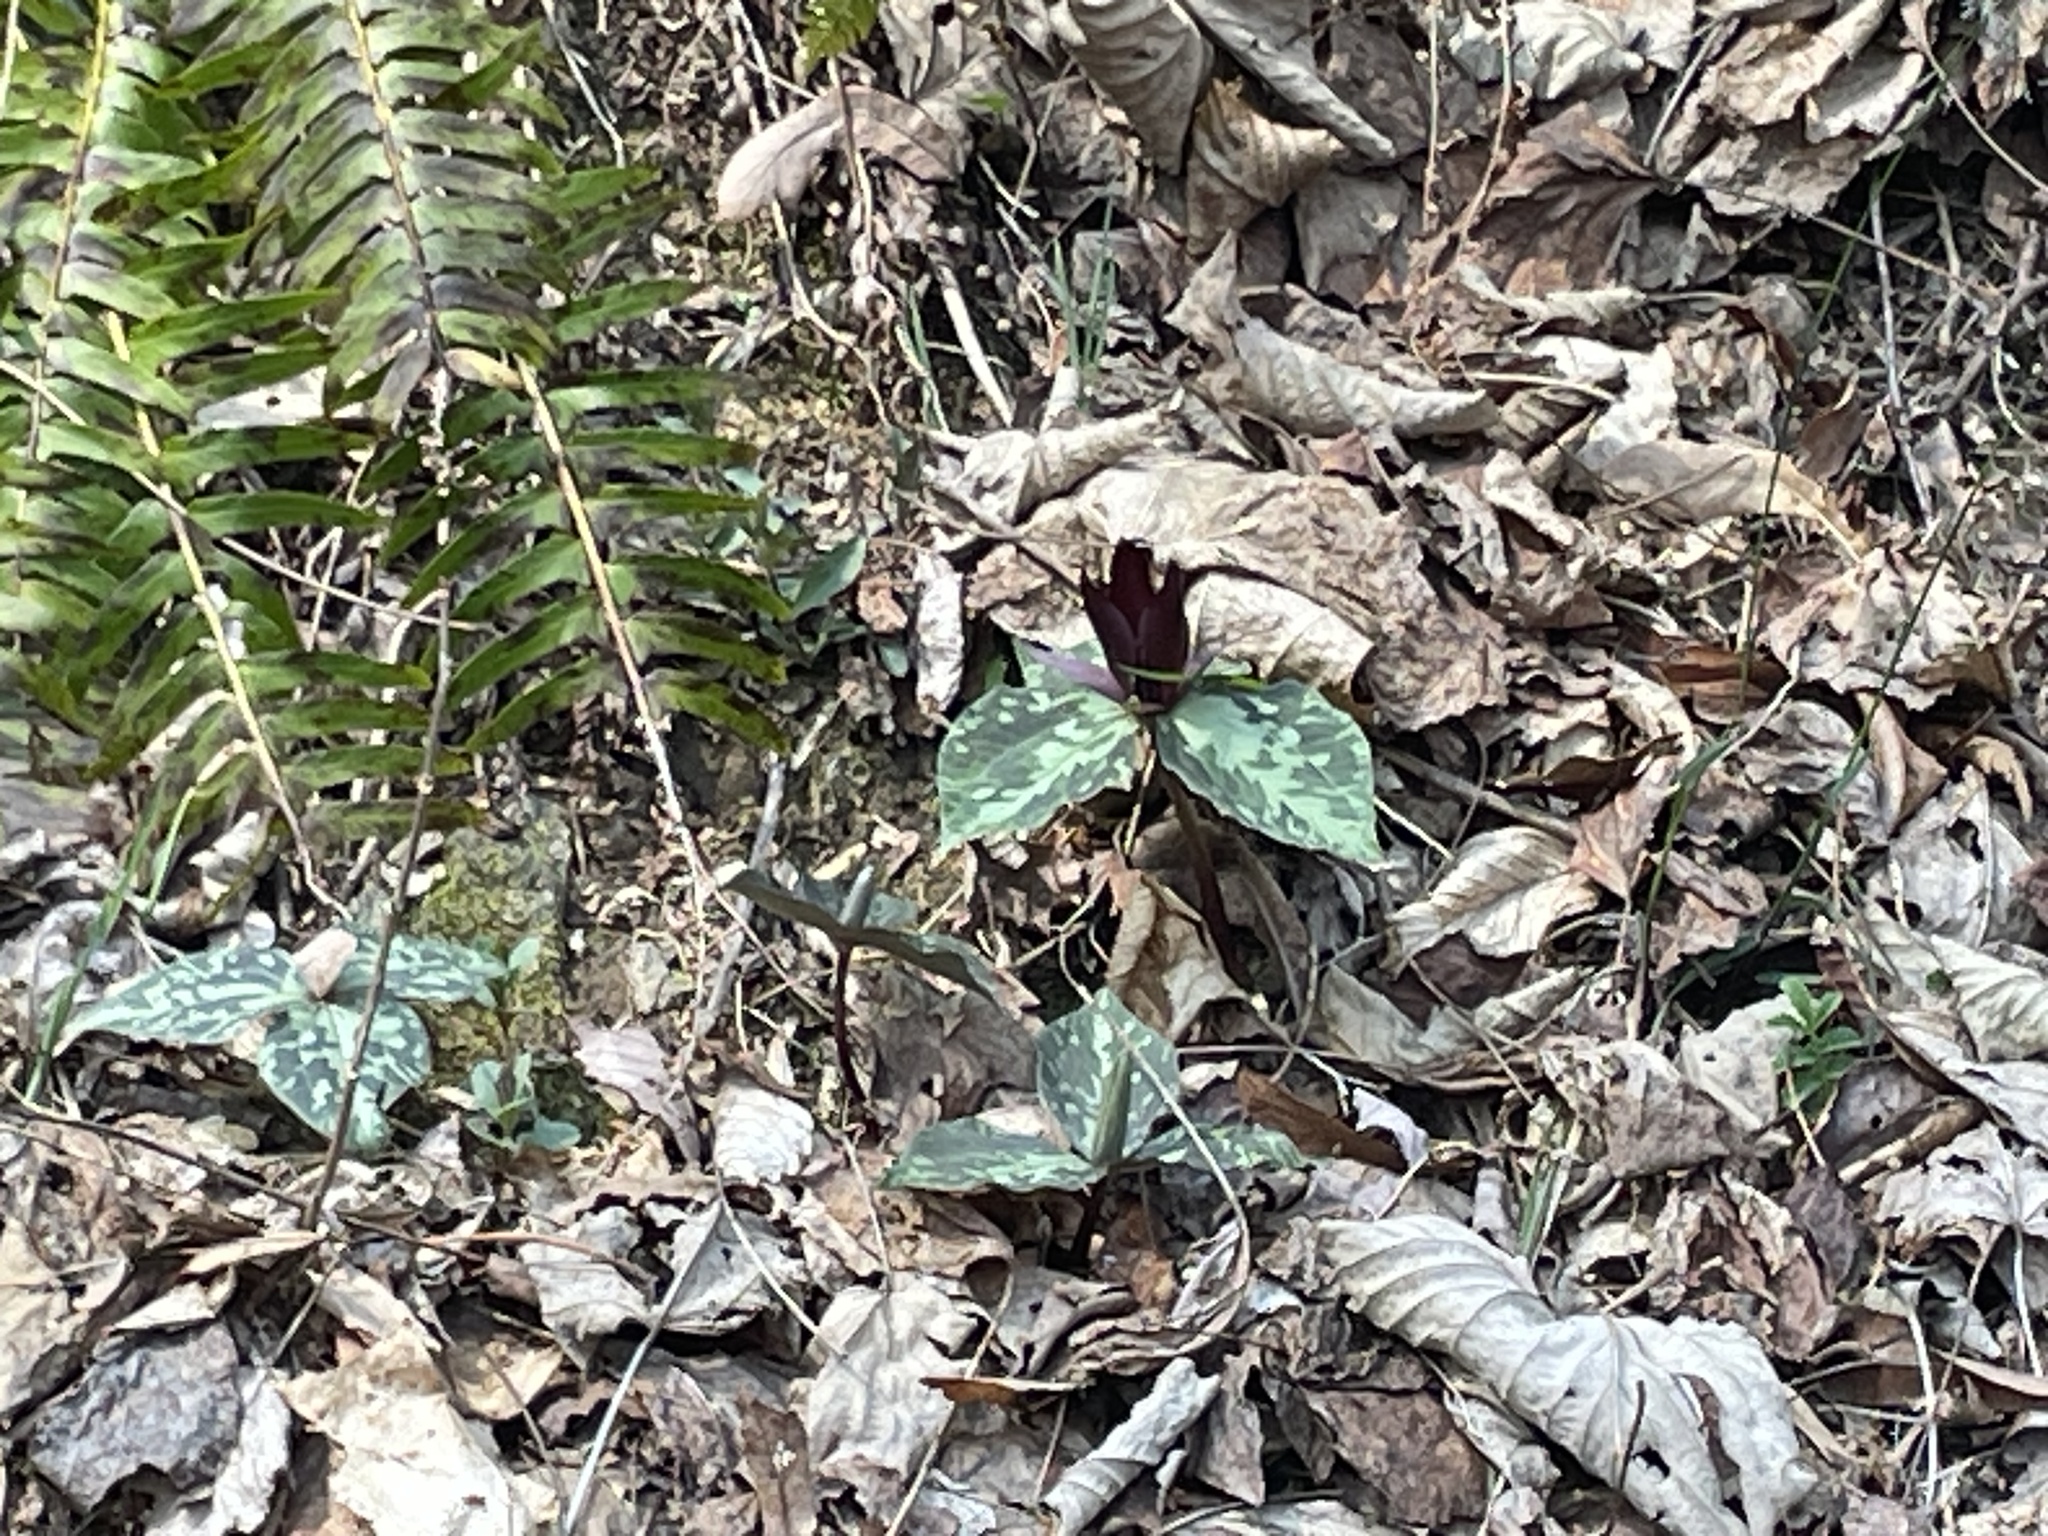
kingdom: Plantae
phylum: Tracheophyta
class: Liliopsida
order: Liliales
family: Melanthiaceae
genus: Trillium
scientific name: Trillium cuneatum
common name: Cuneate trillium
